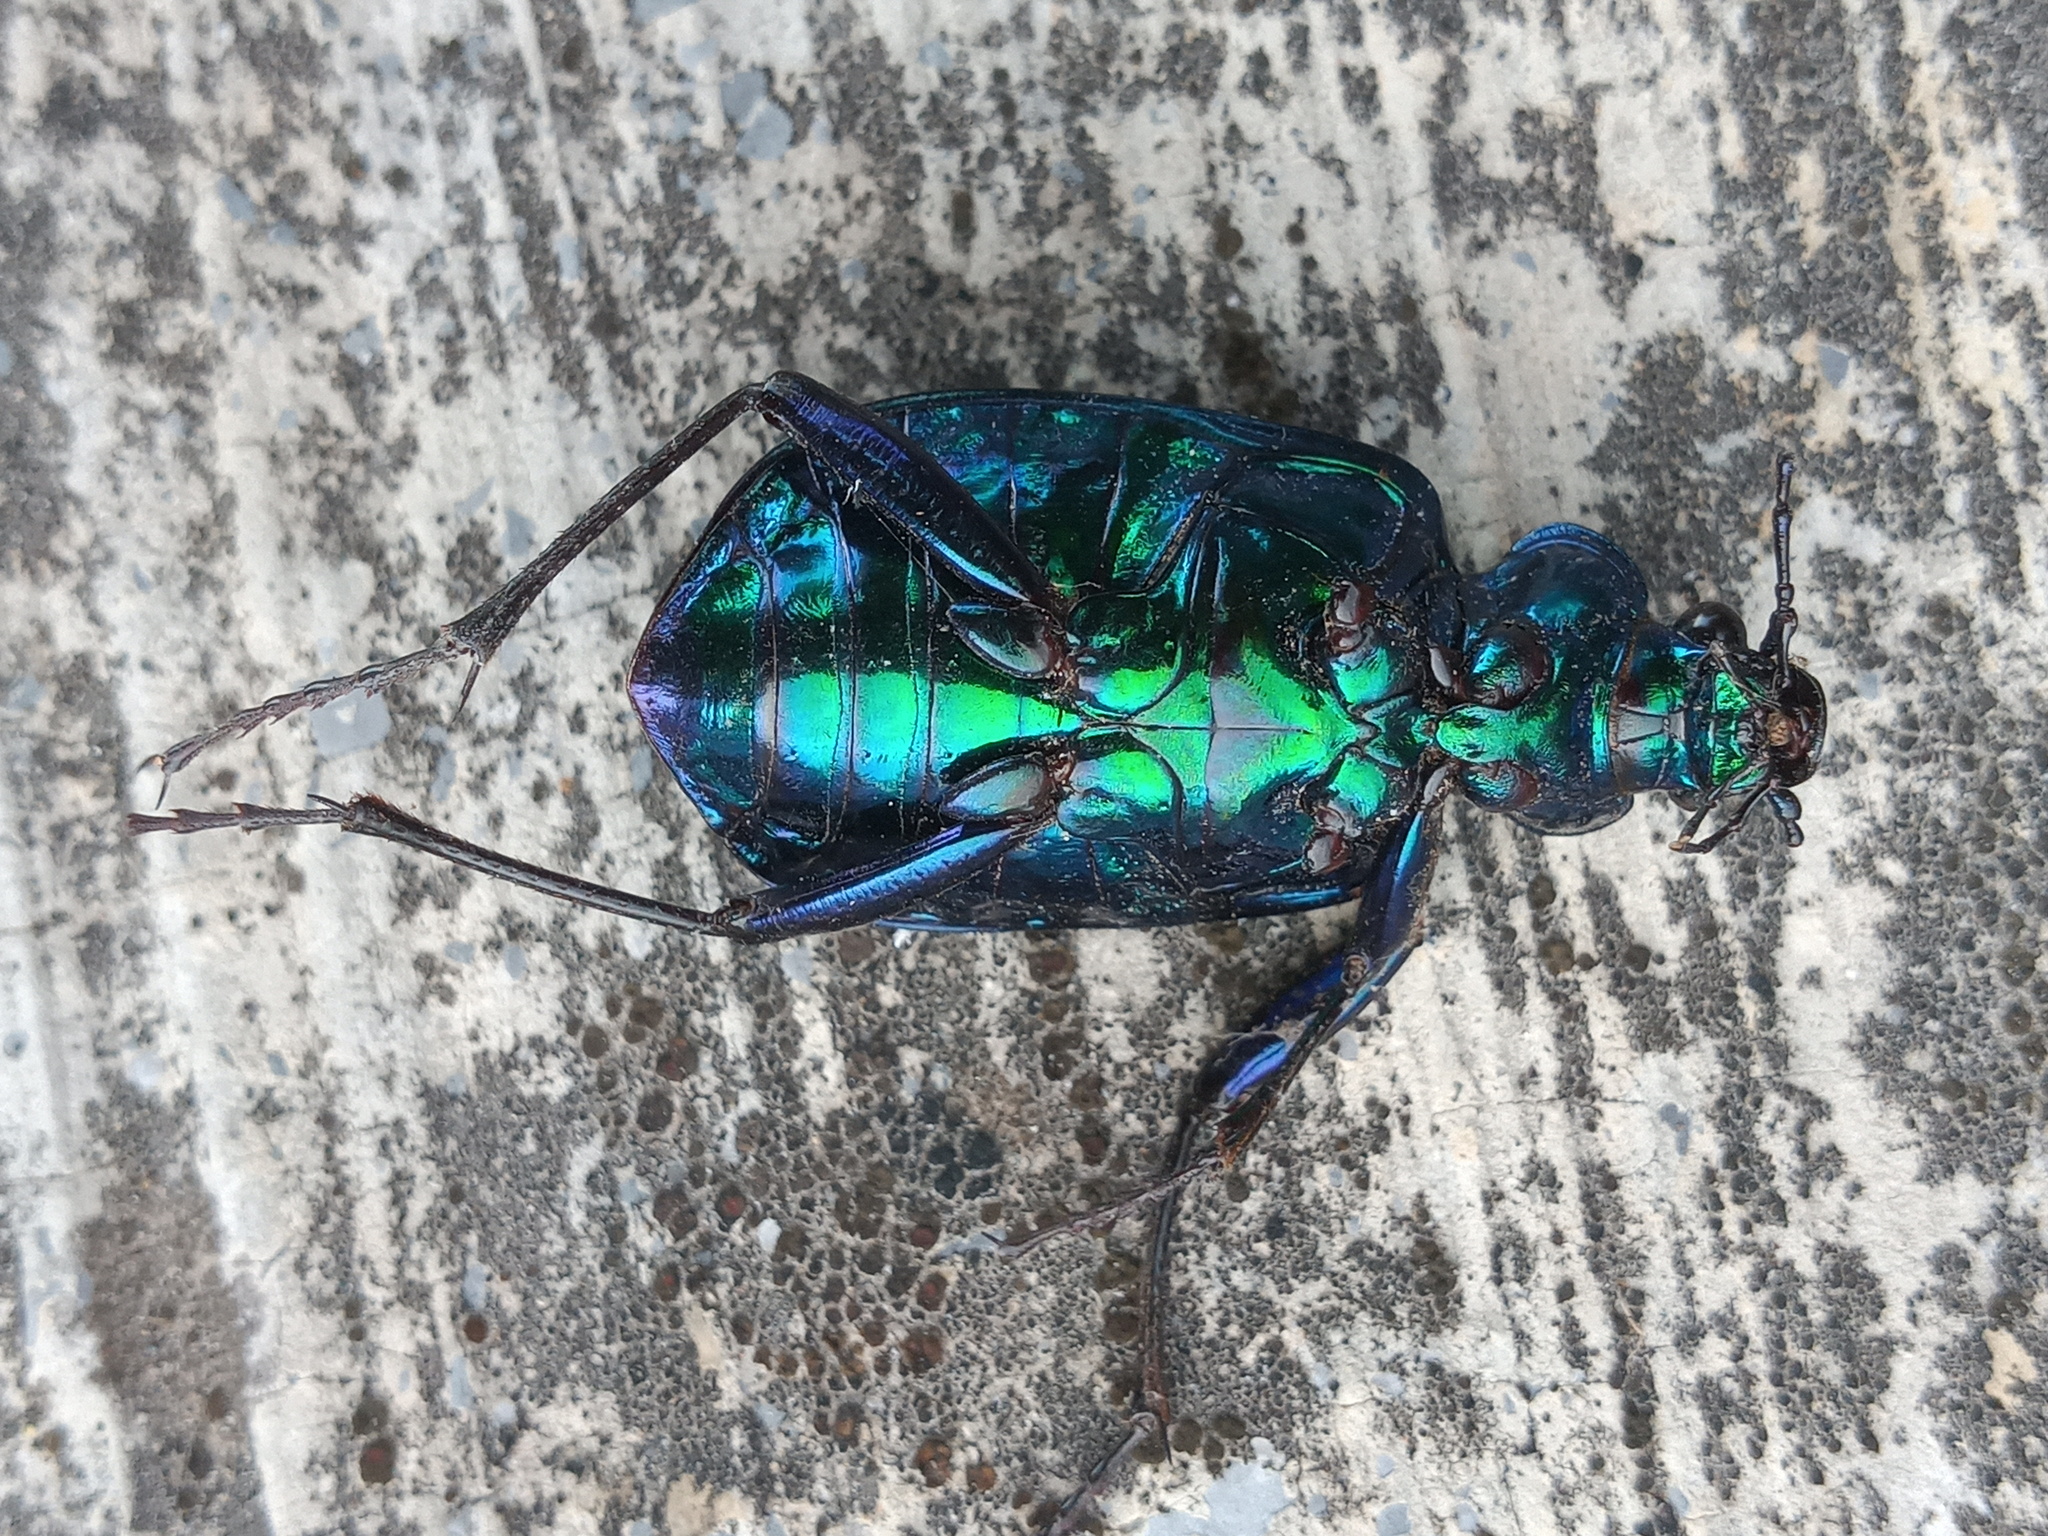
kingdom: Animalia
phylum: Arthropoda
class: Insecta
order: Coleoptera
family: Carabidae
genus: Calosoma
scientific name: Calosoma aurocinctum
